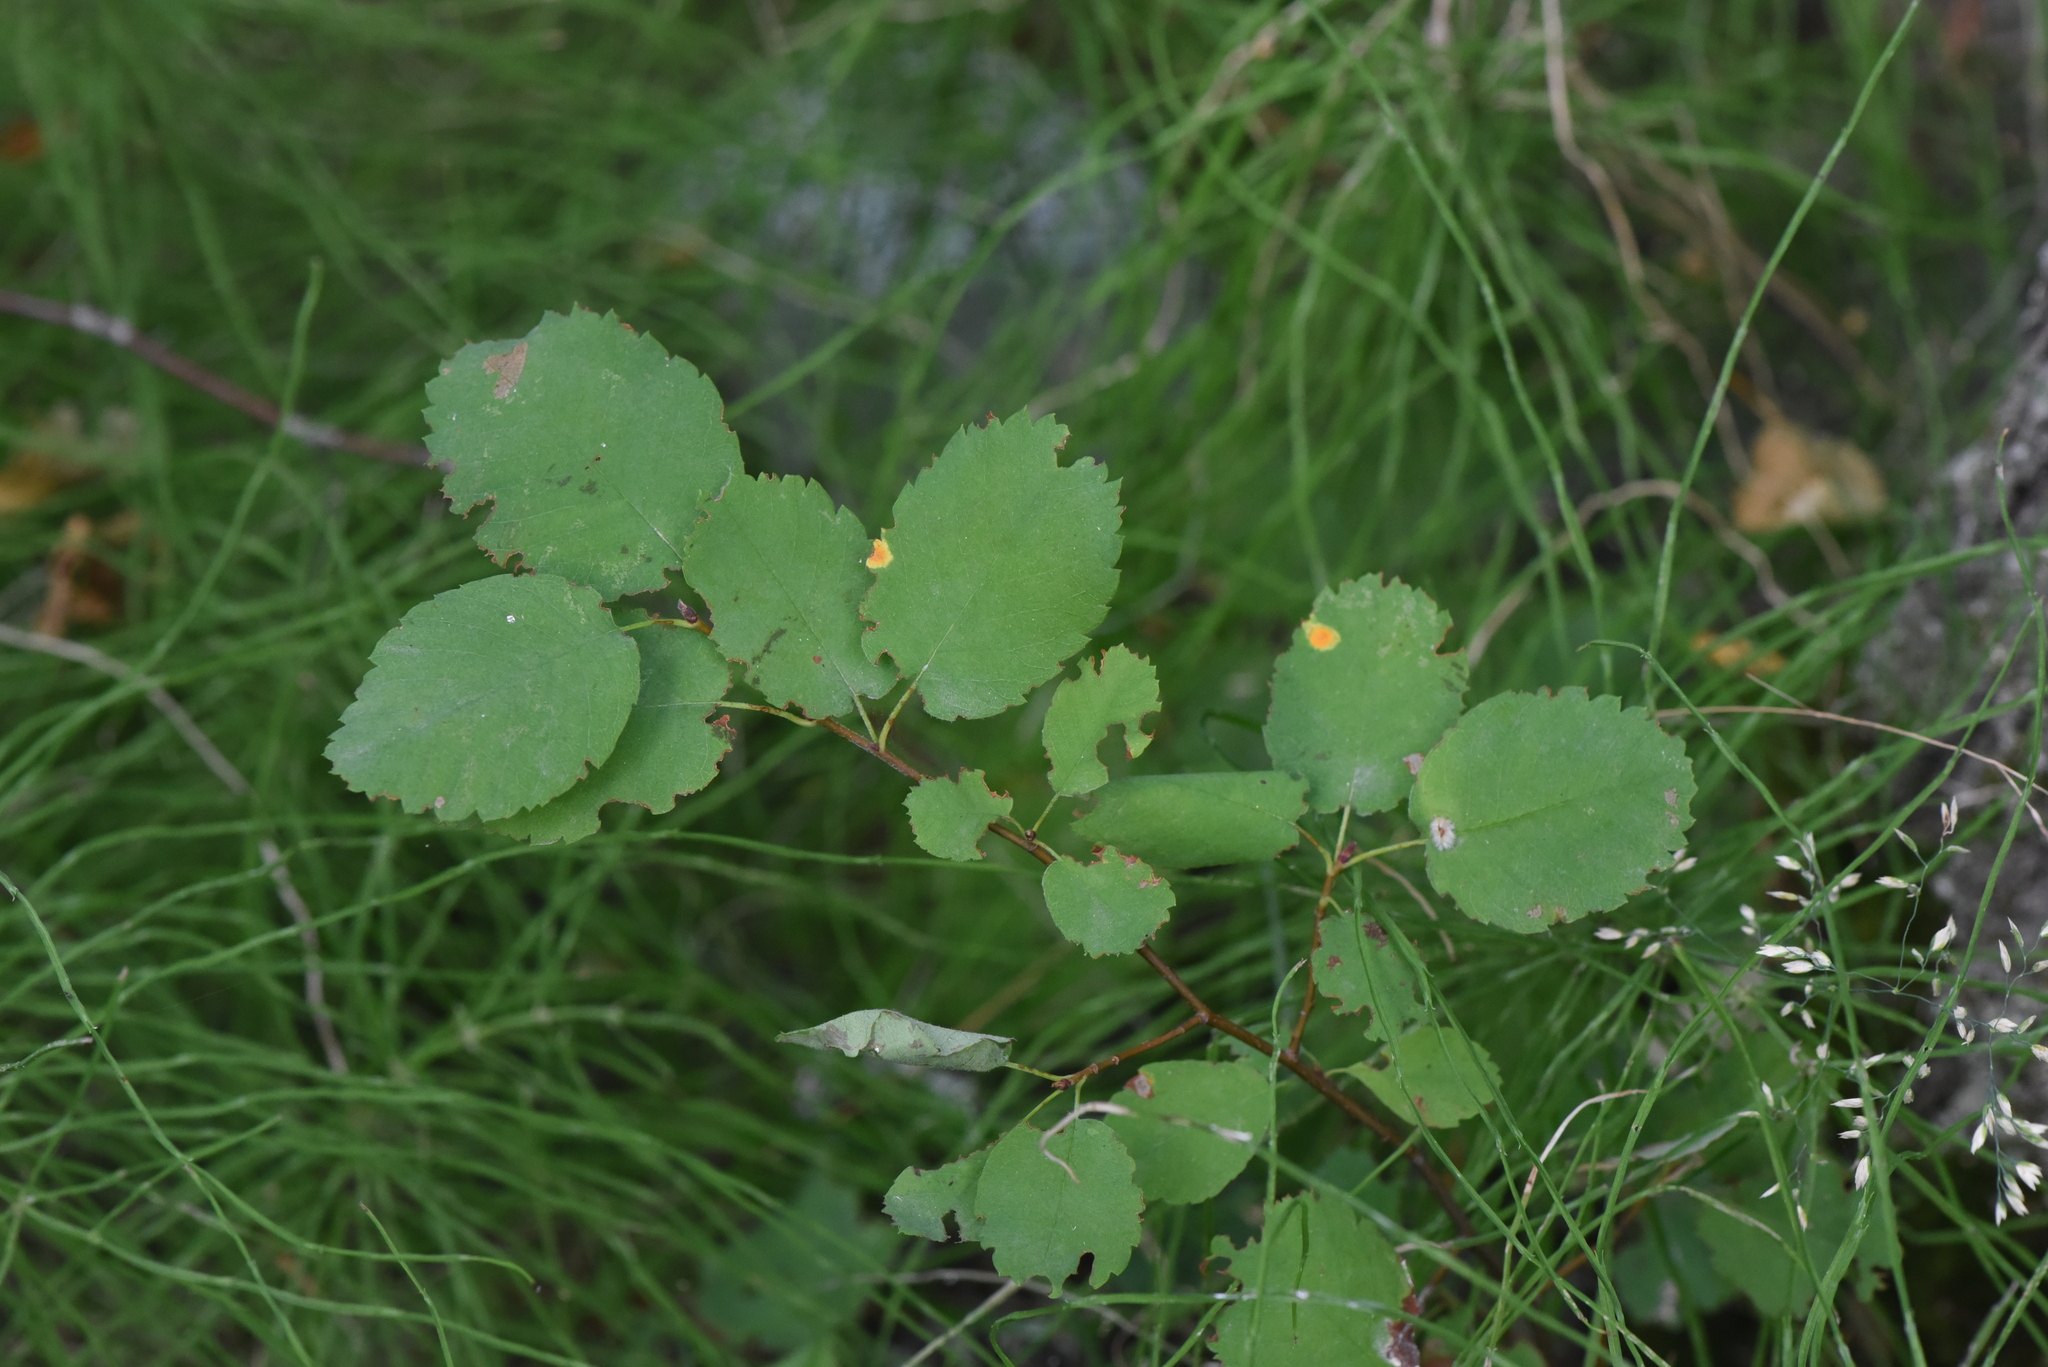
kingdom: Plantae
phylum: Tracheophyta
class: Magnoliopsida
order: Rosales
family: Rosaceae
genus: Amelanchier
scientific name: Amelanchier alnifolia
